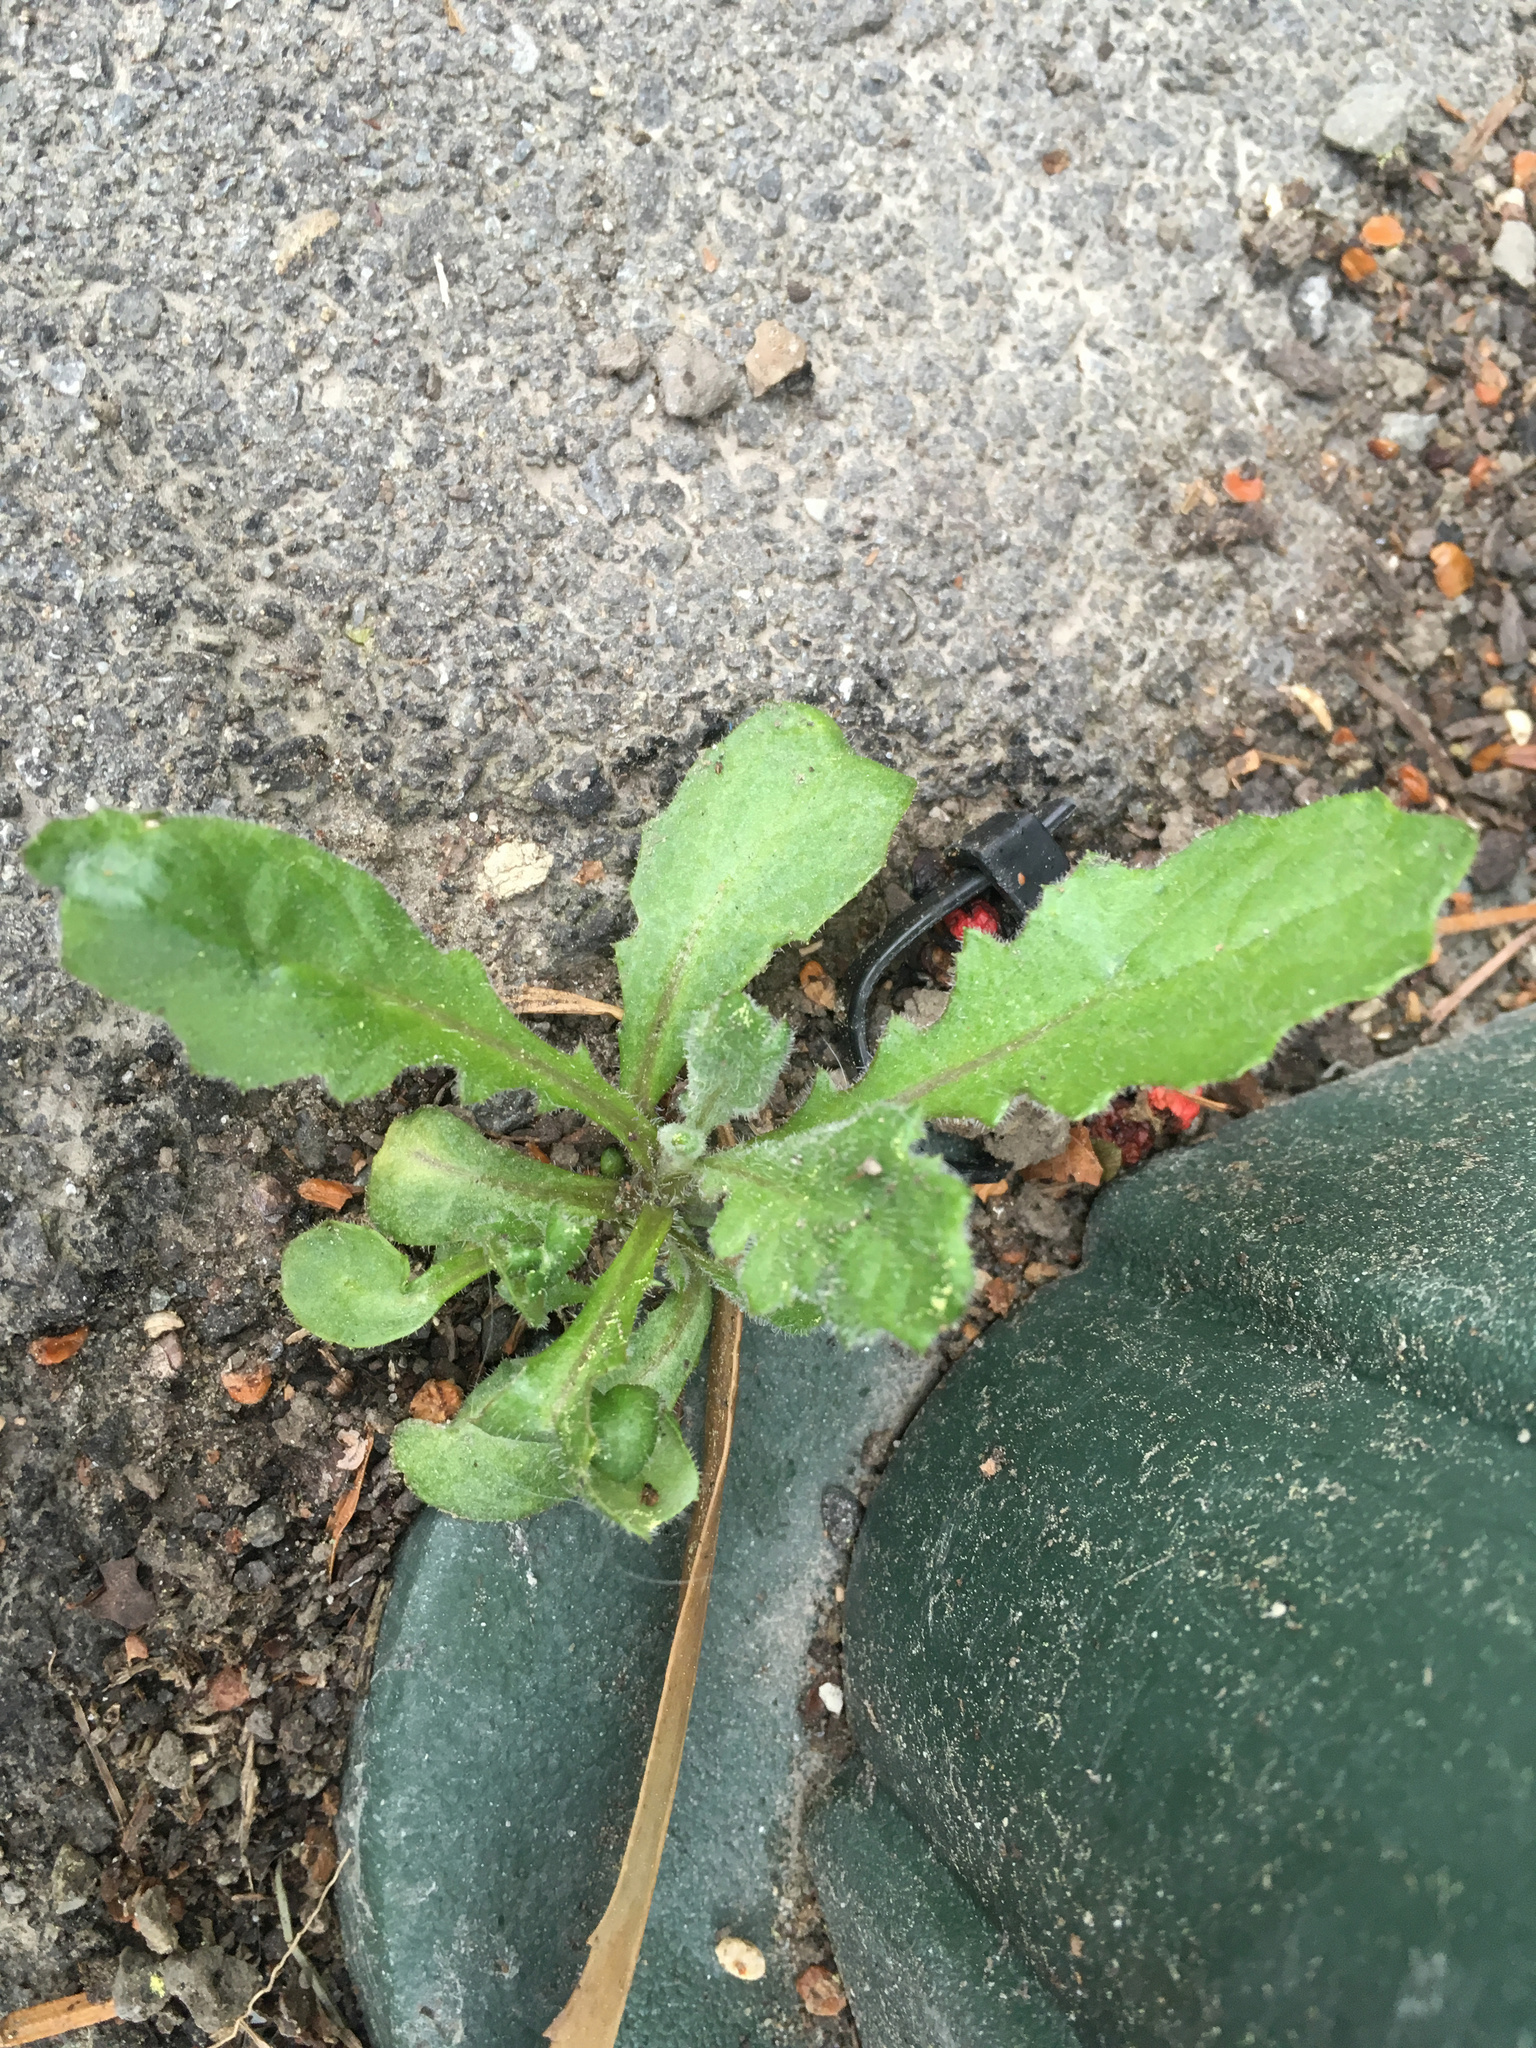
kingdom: Plantae
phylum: Tracheophyta
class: Magnoliopsida
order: Asterales
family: Asteraceae
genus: Senecio
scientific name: Senecio glomeratus
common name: Cutleaf burnweed
